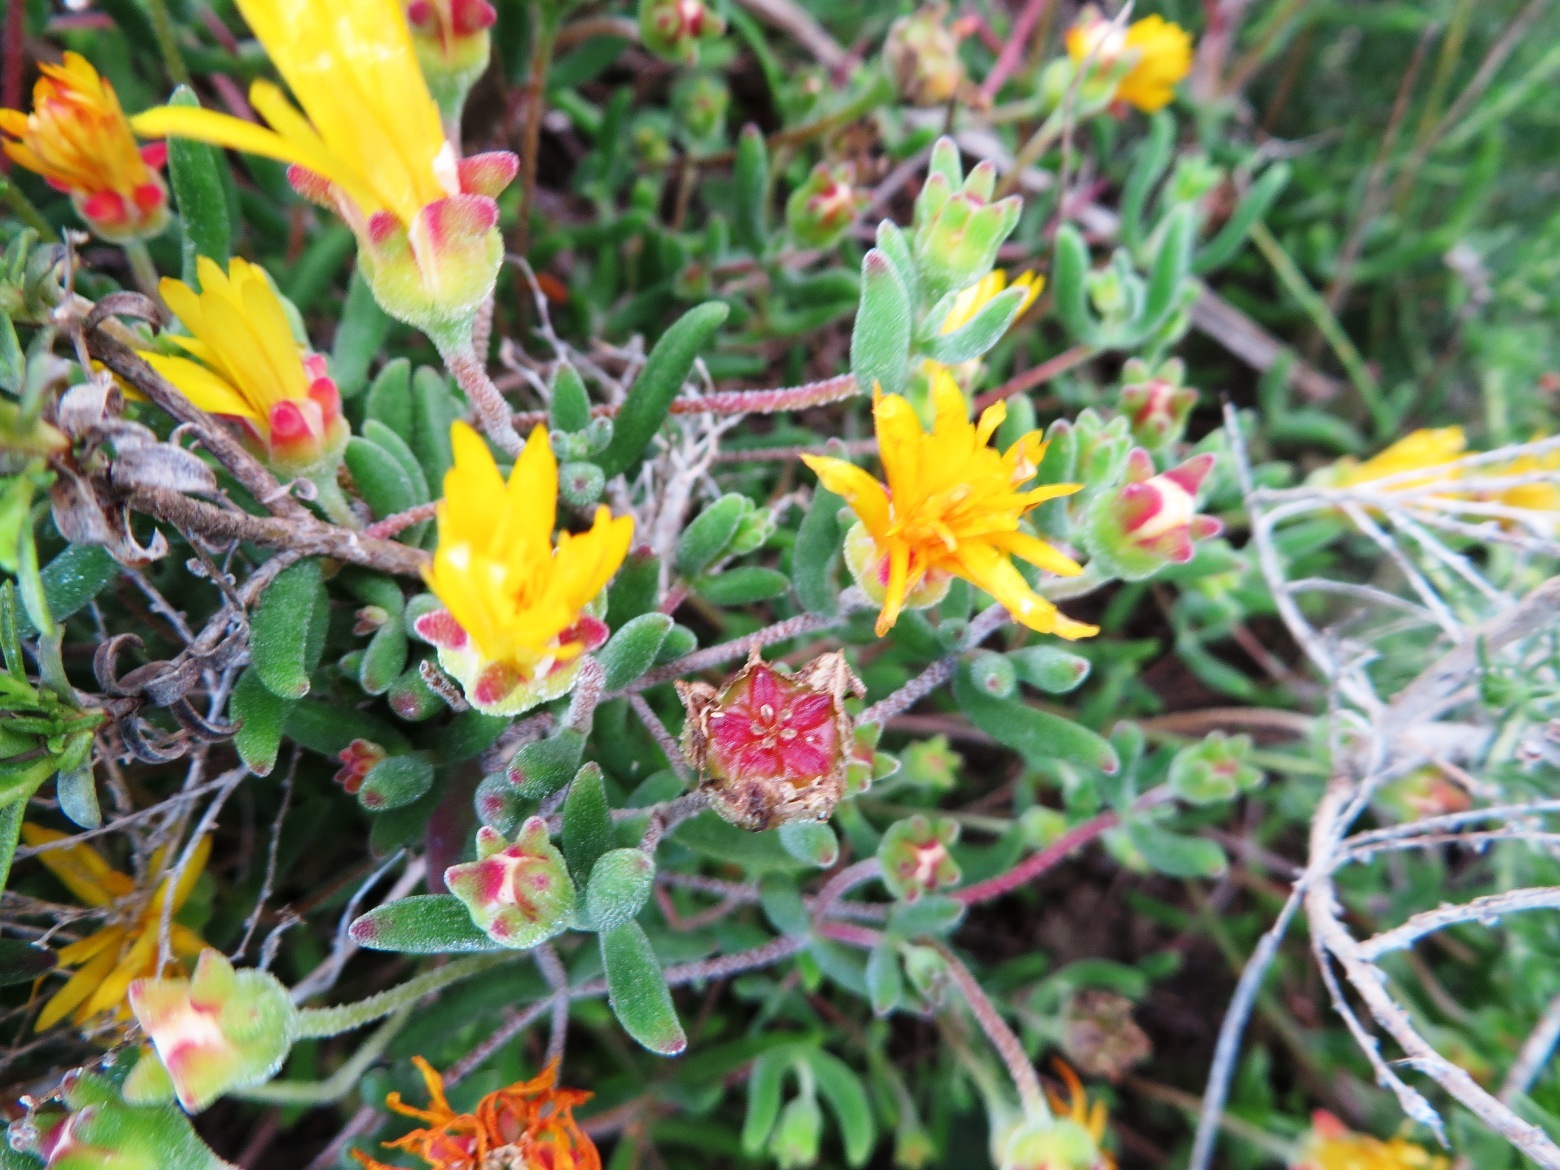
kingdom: Plantae
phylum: Tracheophyta
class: Magnoliopsida
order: Caryophyllales
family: Aizoaceae
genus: Drosanthemum
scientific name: Drosanthemum flavum
